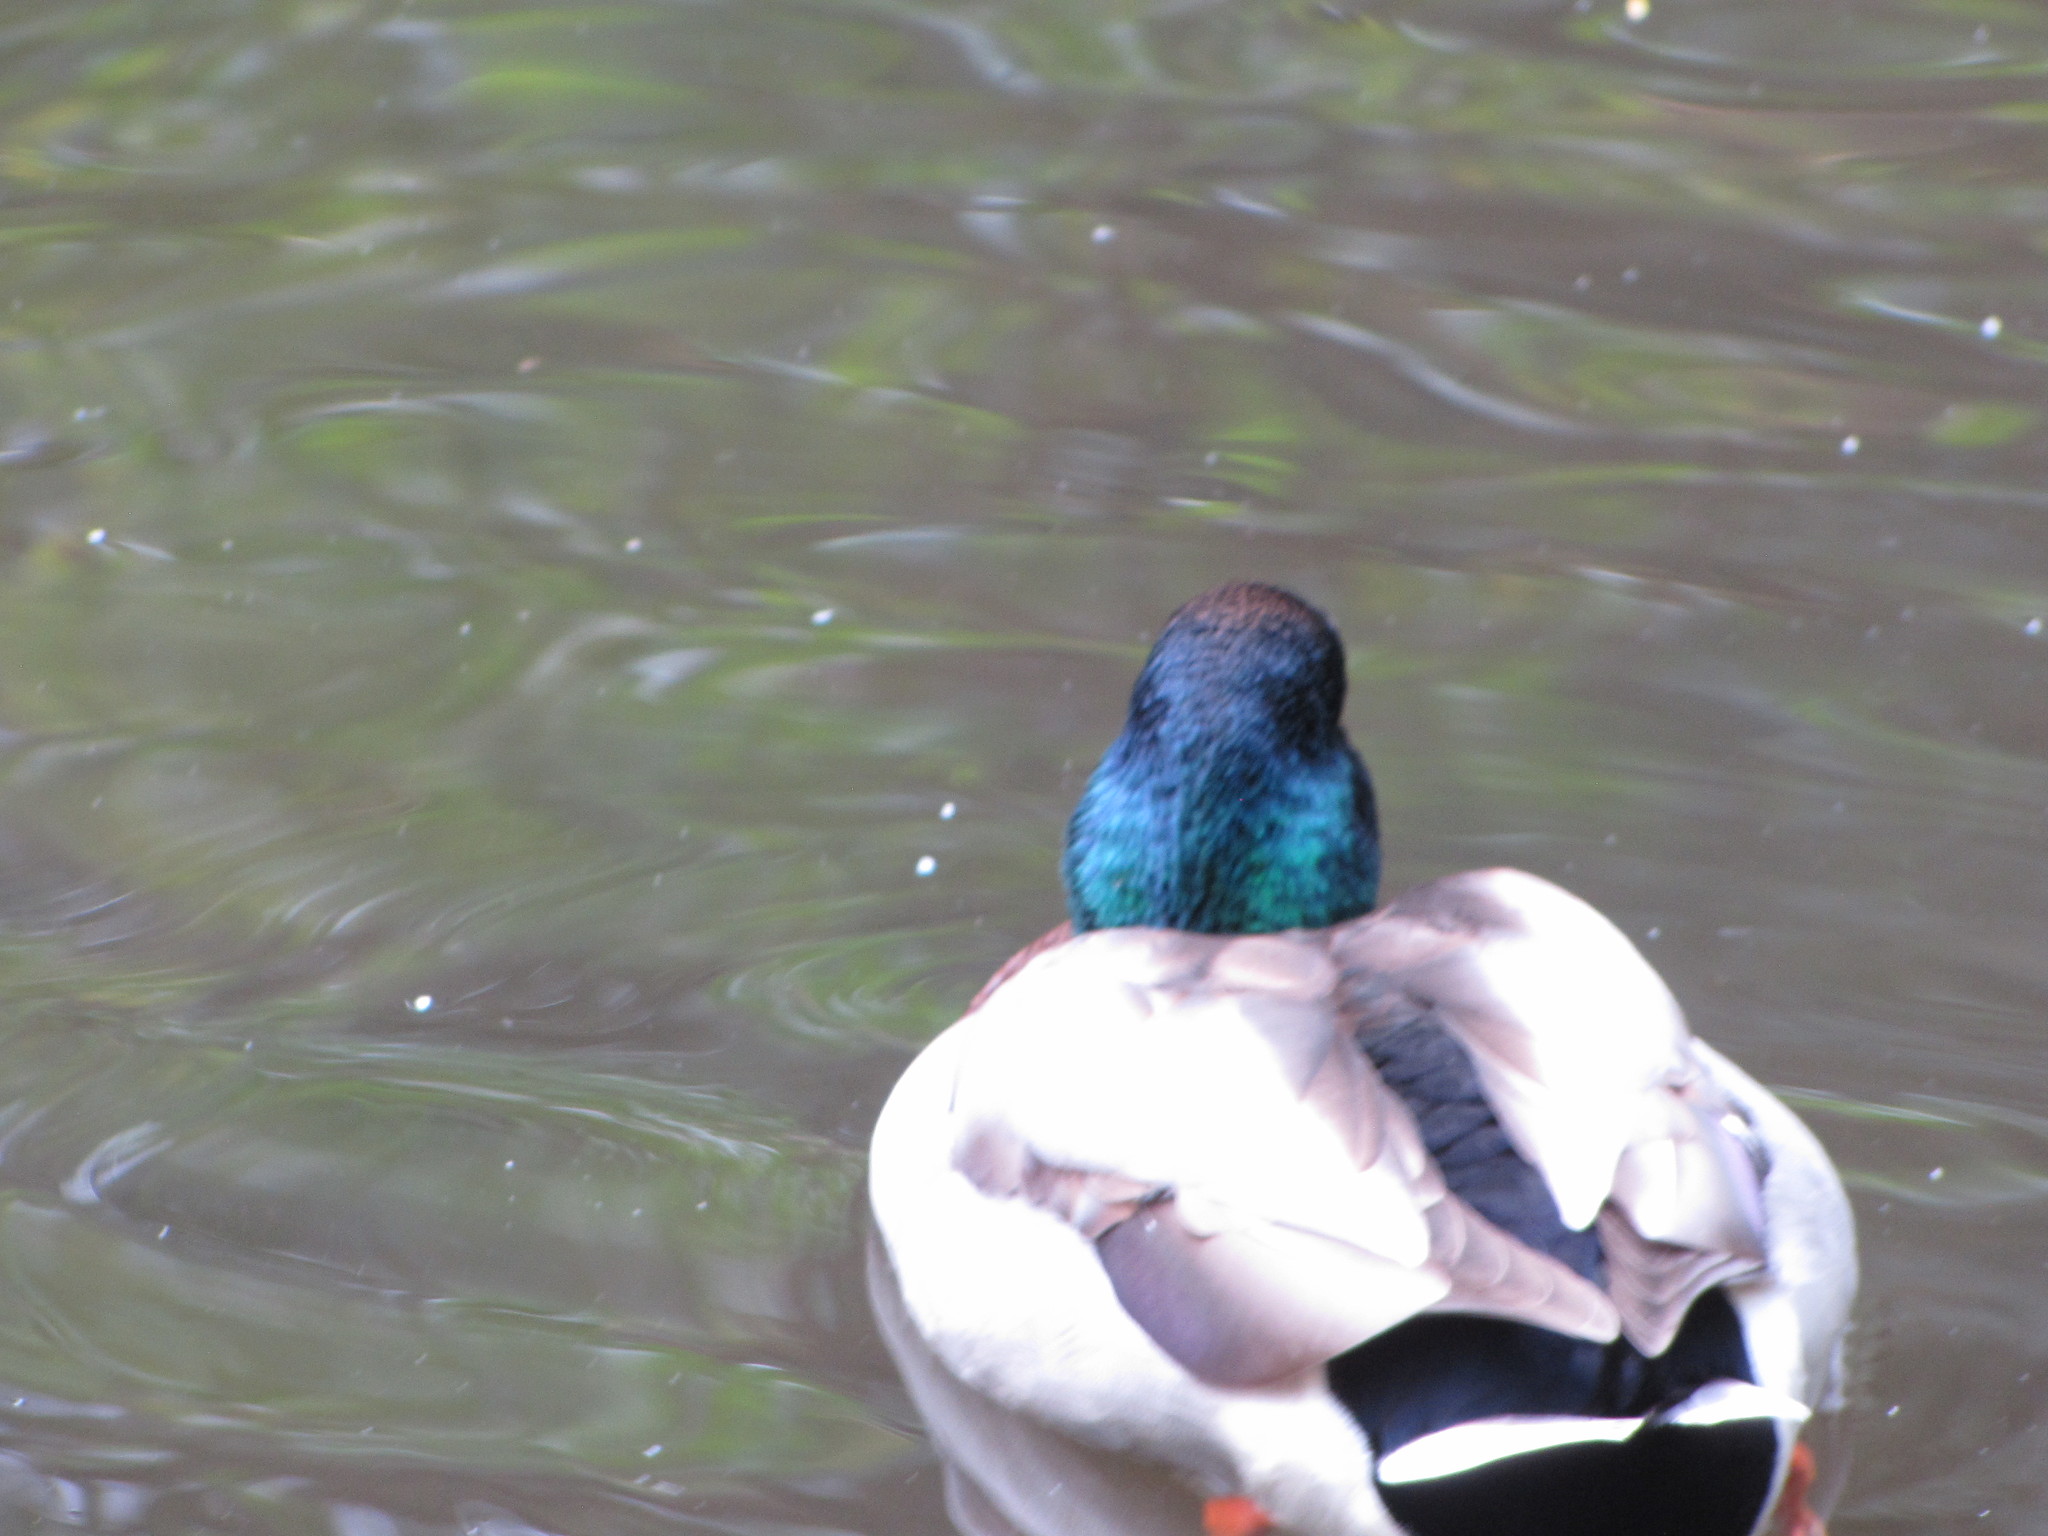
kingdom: Animalia
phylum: Chordata
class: Aves
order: Anseriformes
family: Anatidae
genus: Anas
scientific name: Anas platyrhynchos
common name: Mallard
